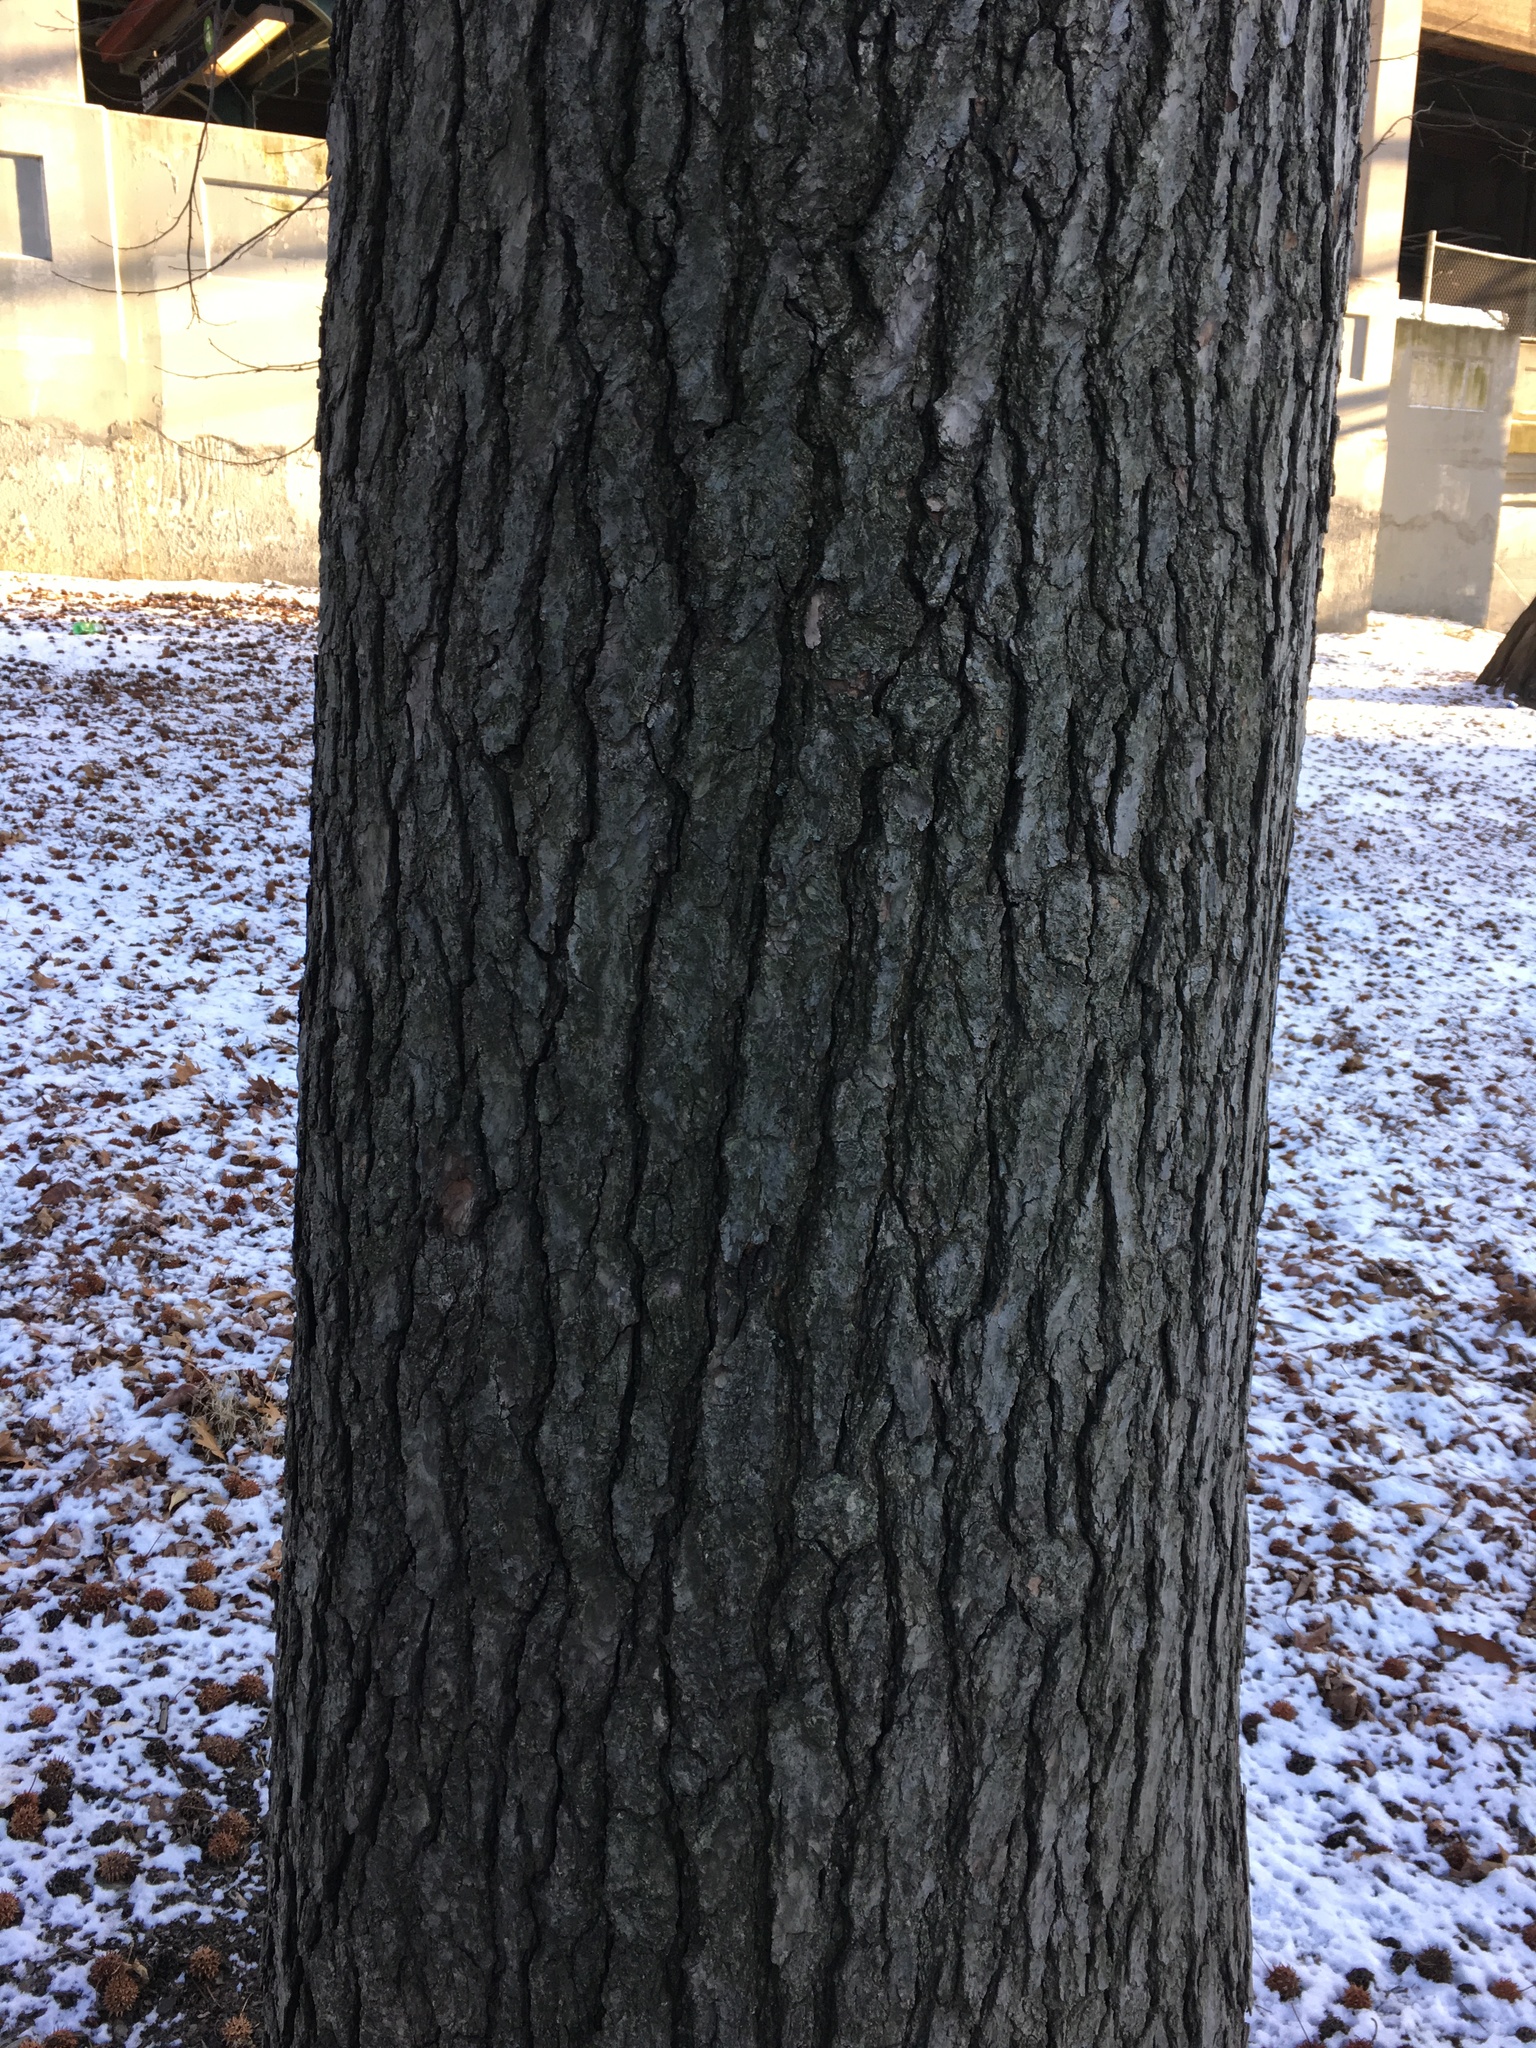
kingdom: Plantae
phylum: Tracheophyta
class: Magnoliopsida
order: Saxifragales
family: Altingiaceae
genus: Liquidambar
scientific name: Liquidambar styraciflua
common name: Sweet gum
